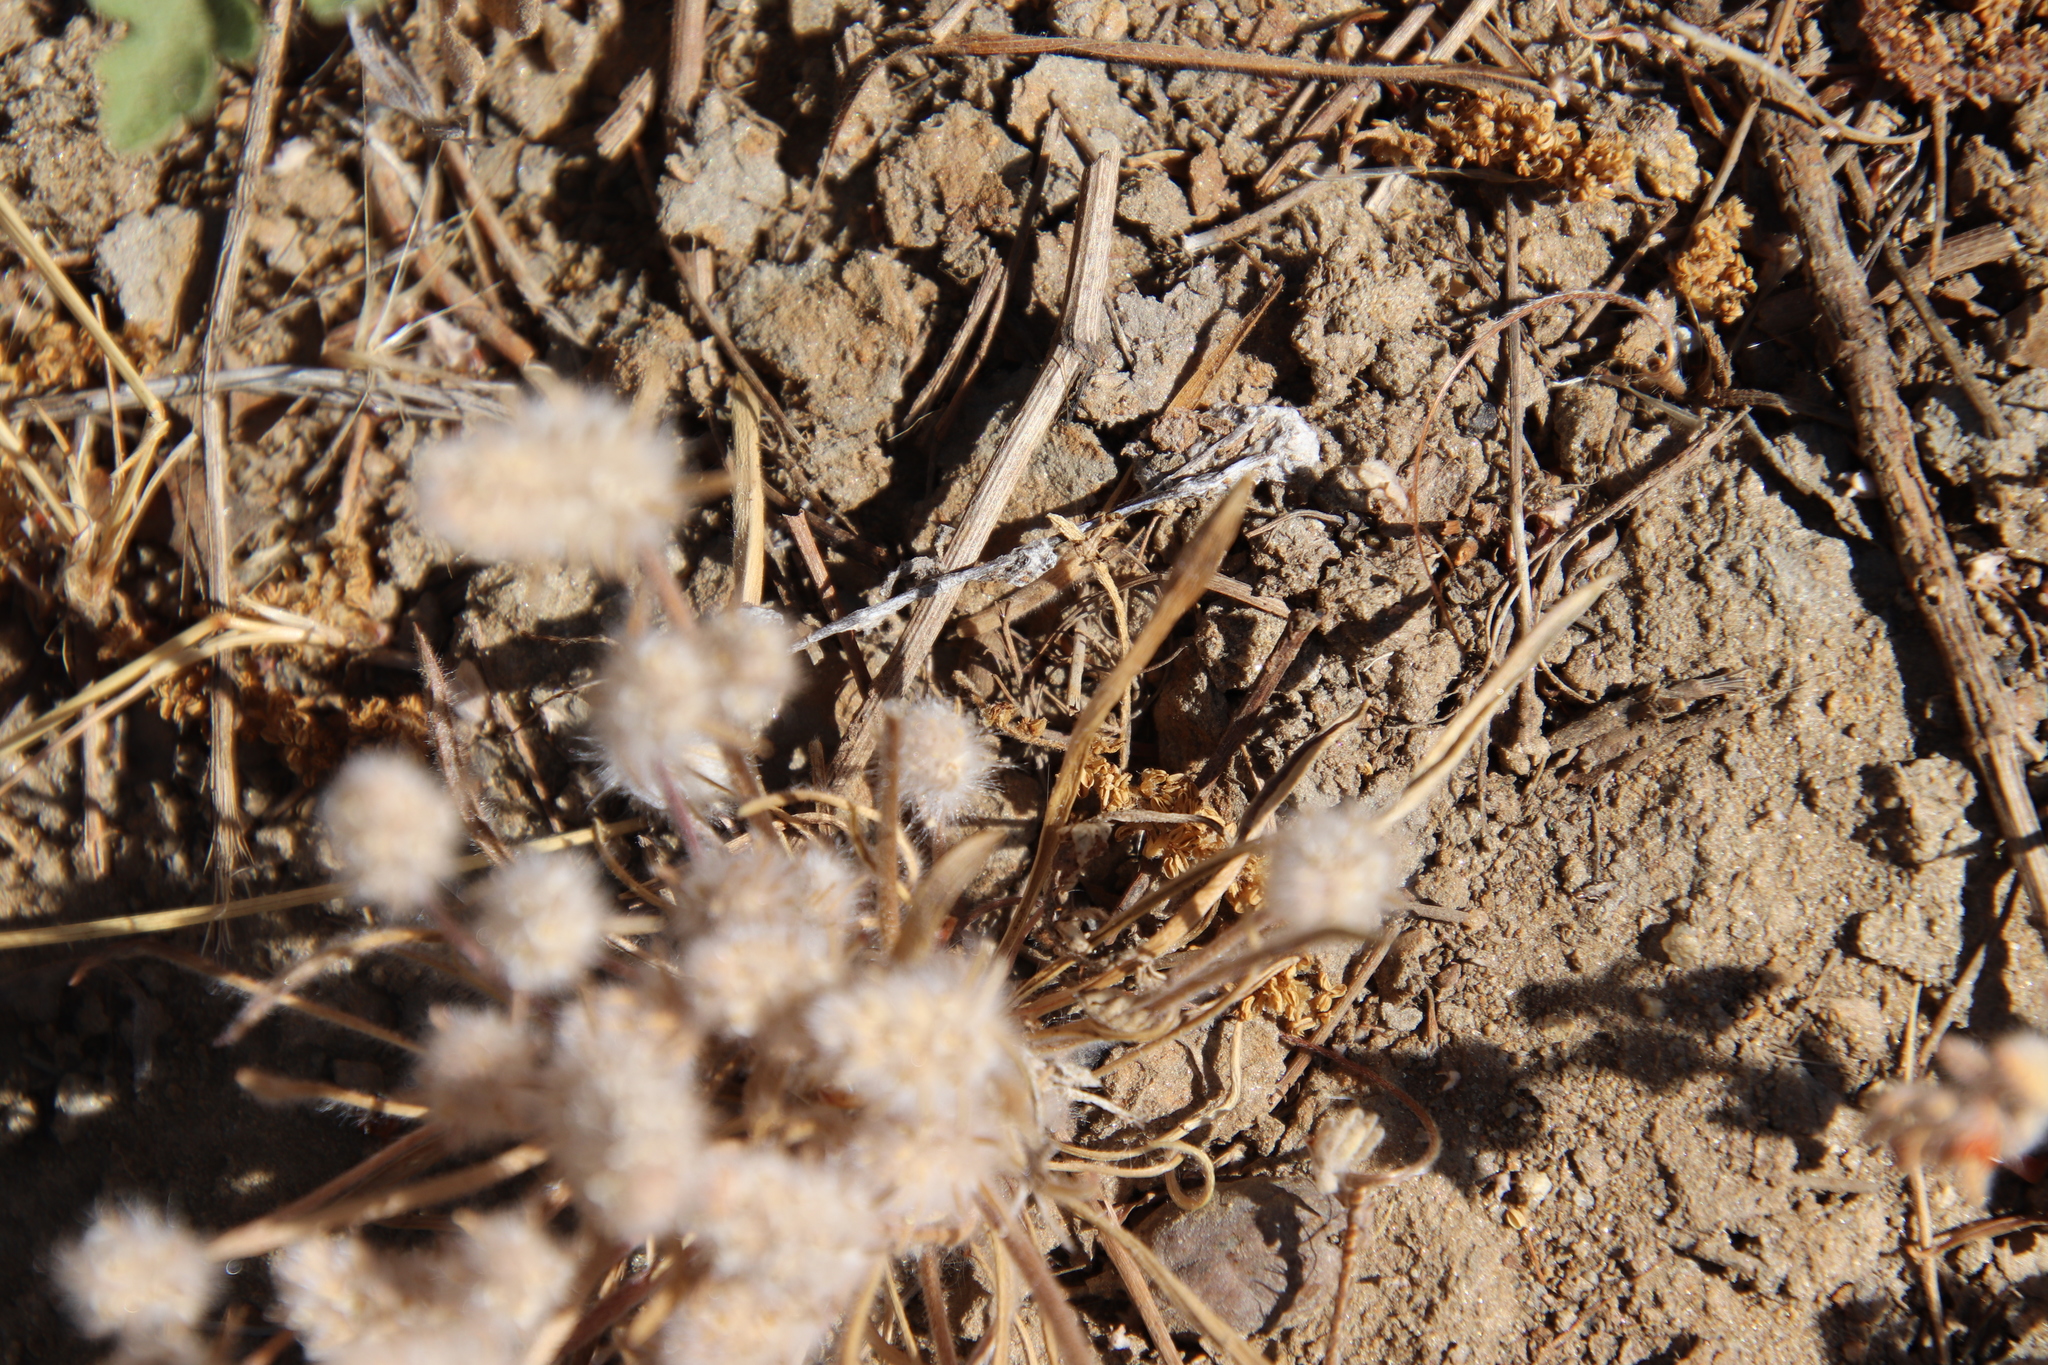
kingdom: Plantae
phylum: Tracheophyta
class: Magnoliopsida
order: Lamiales
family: Plantaginaceae
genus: Plantago
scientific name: Plantago patagonica
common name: Patagonia indian-wheat
